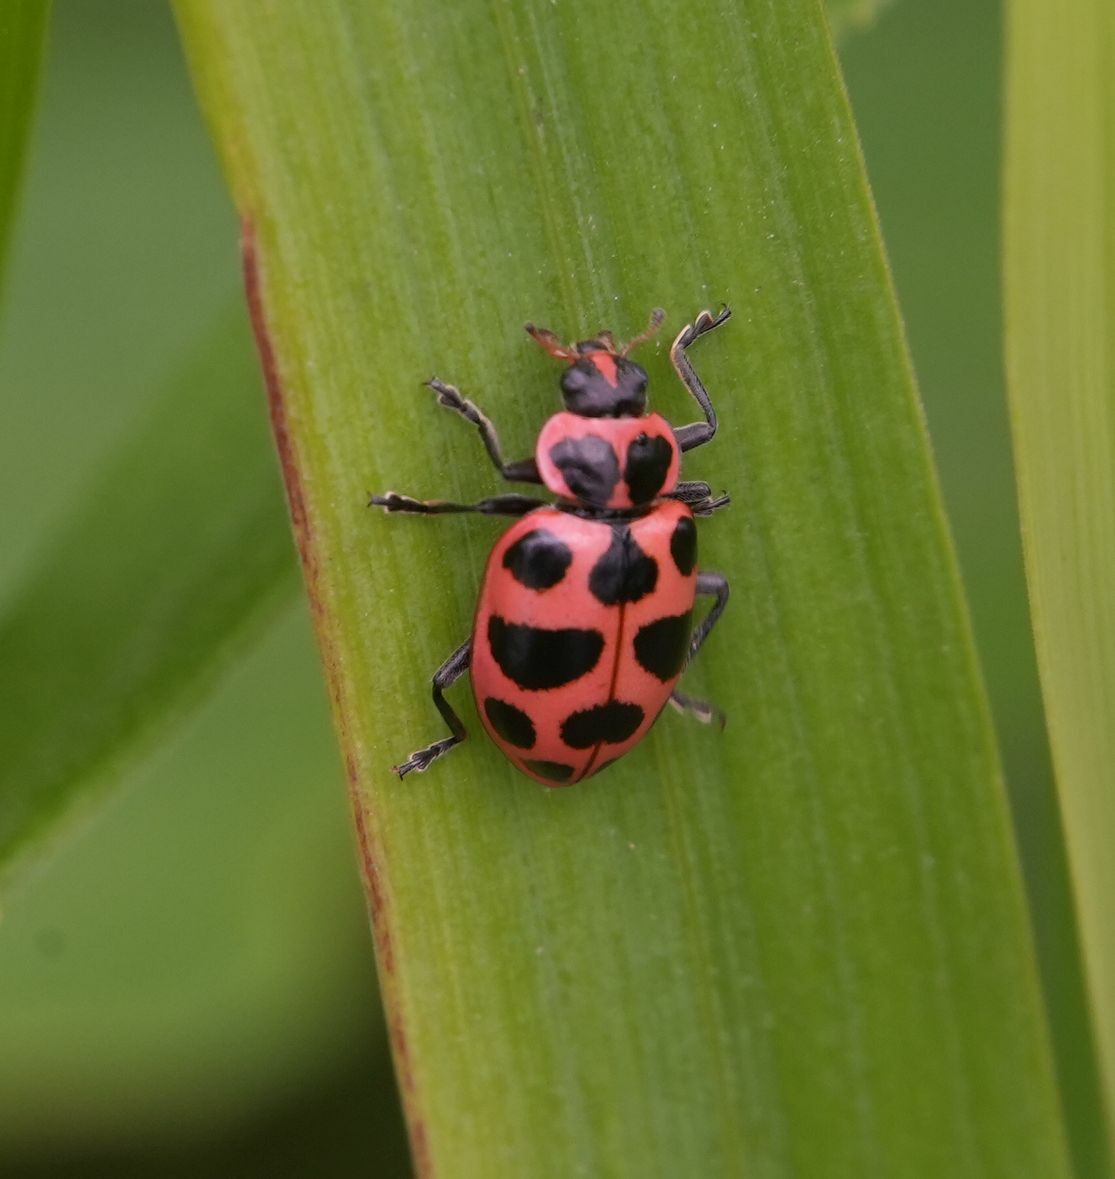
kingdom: Animalia
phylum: Arthropoda
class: Insecta
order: Coleoptera
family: Coccinellidae
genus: Coleomegilla
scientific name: Coleomegilla maculata
